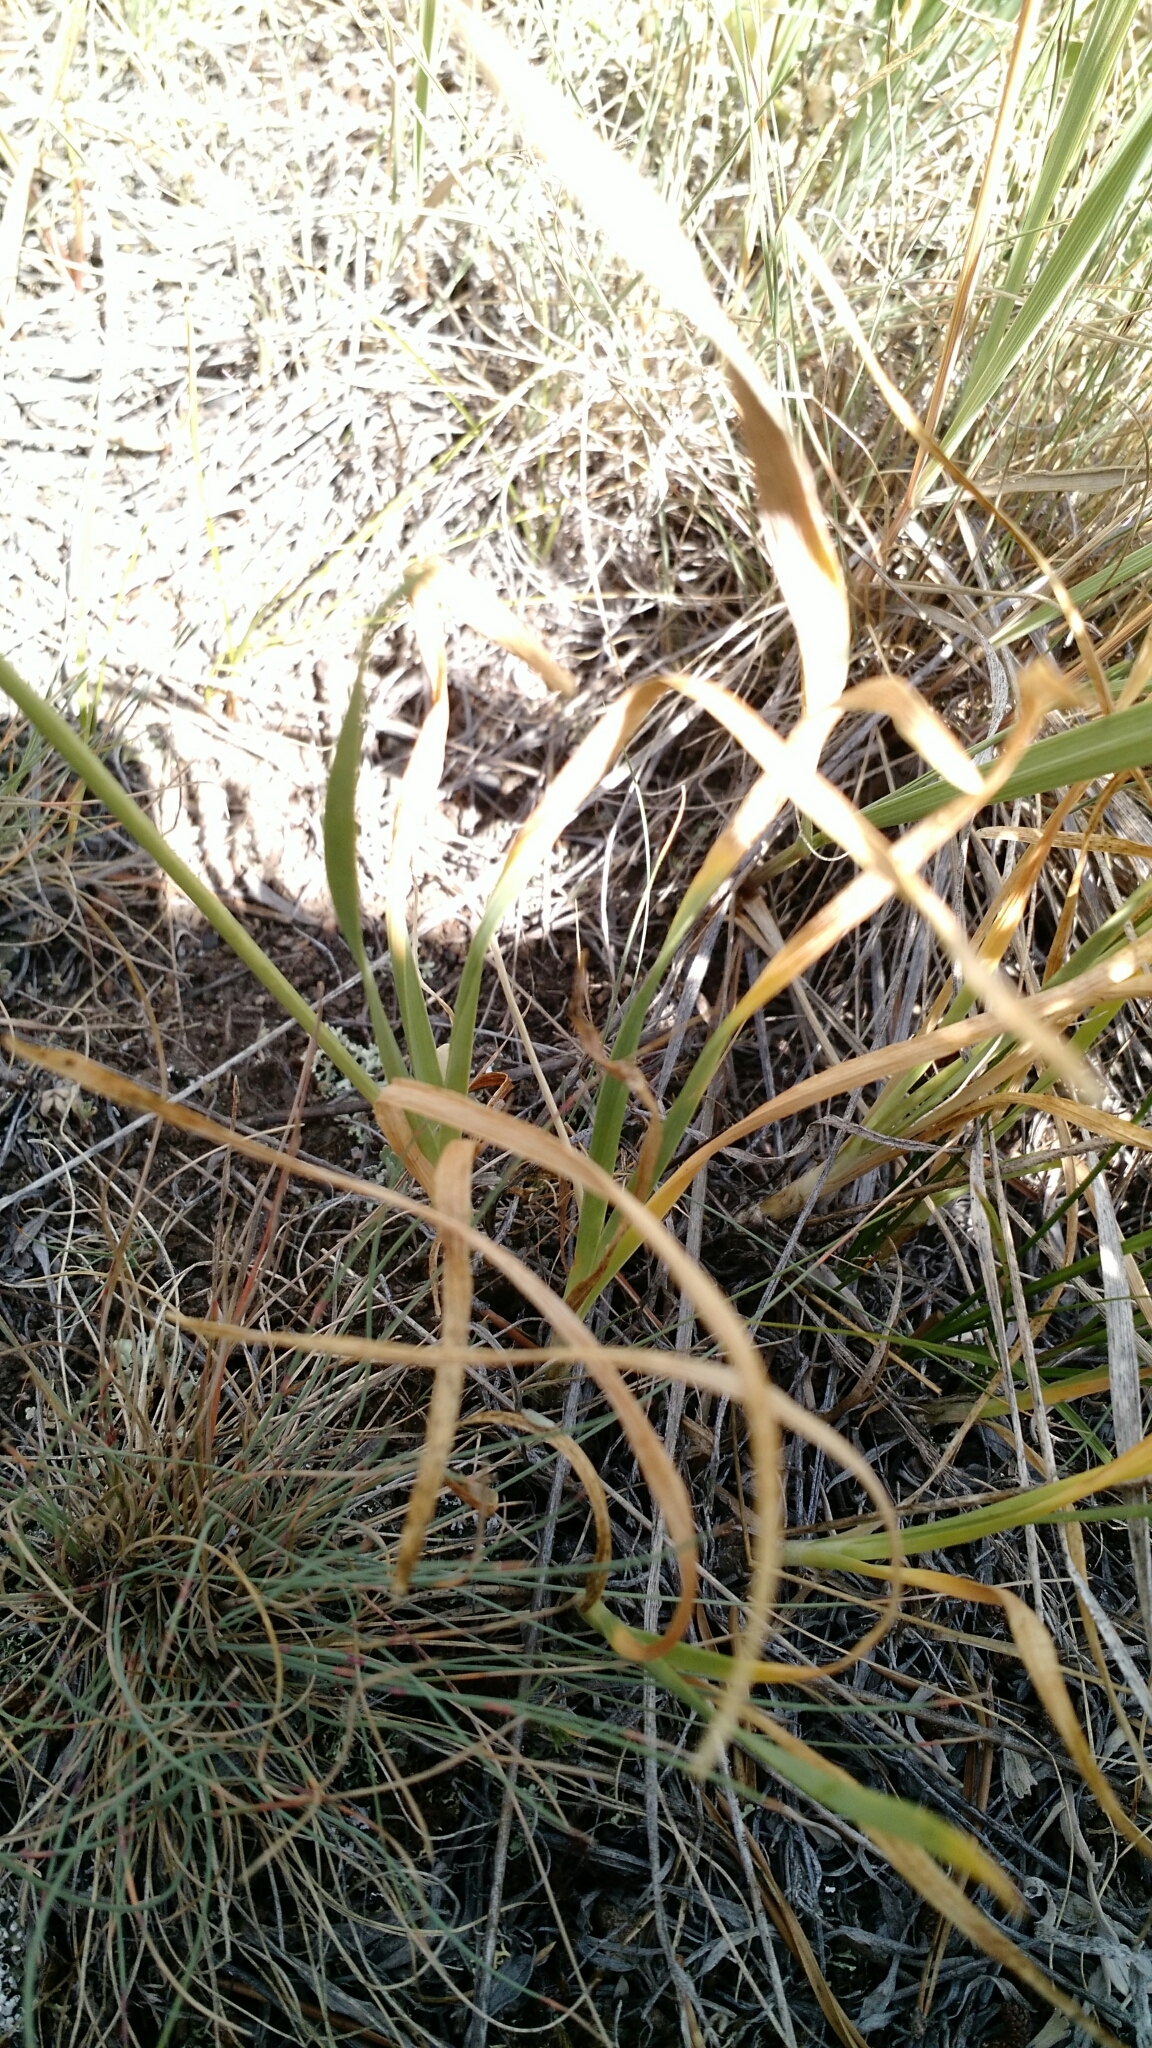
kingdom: Plantae
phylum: Tracheophyta
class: Liliopsida
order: Asparagales
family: Amaryllidaceae
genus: Allium
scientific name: Allium cernuum
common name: Nodding onion
